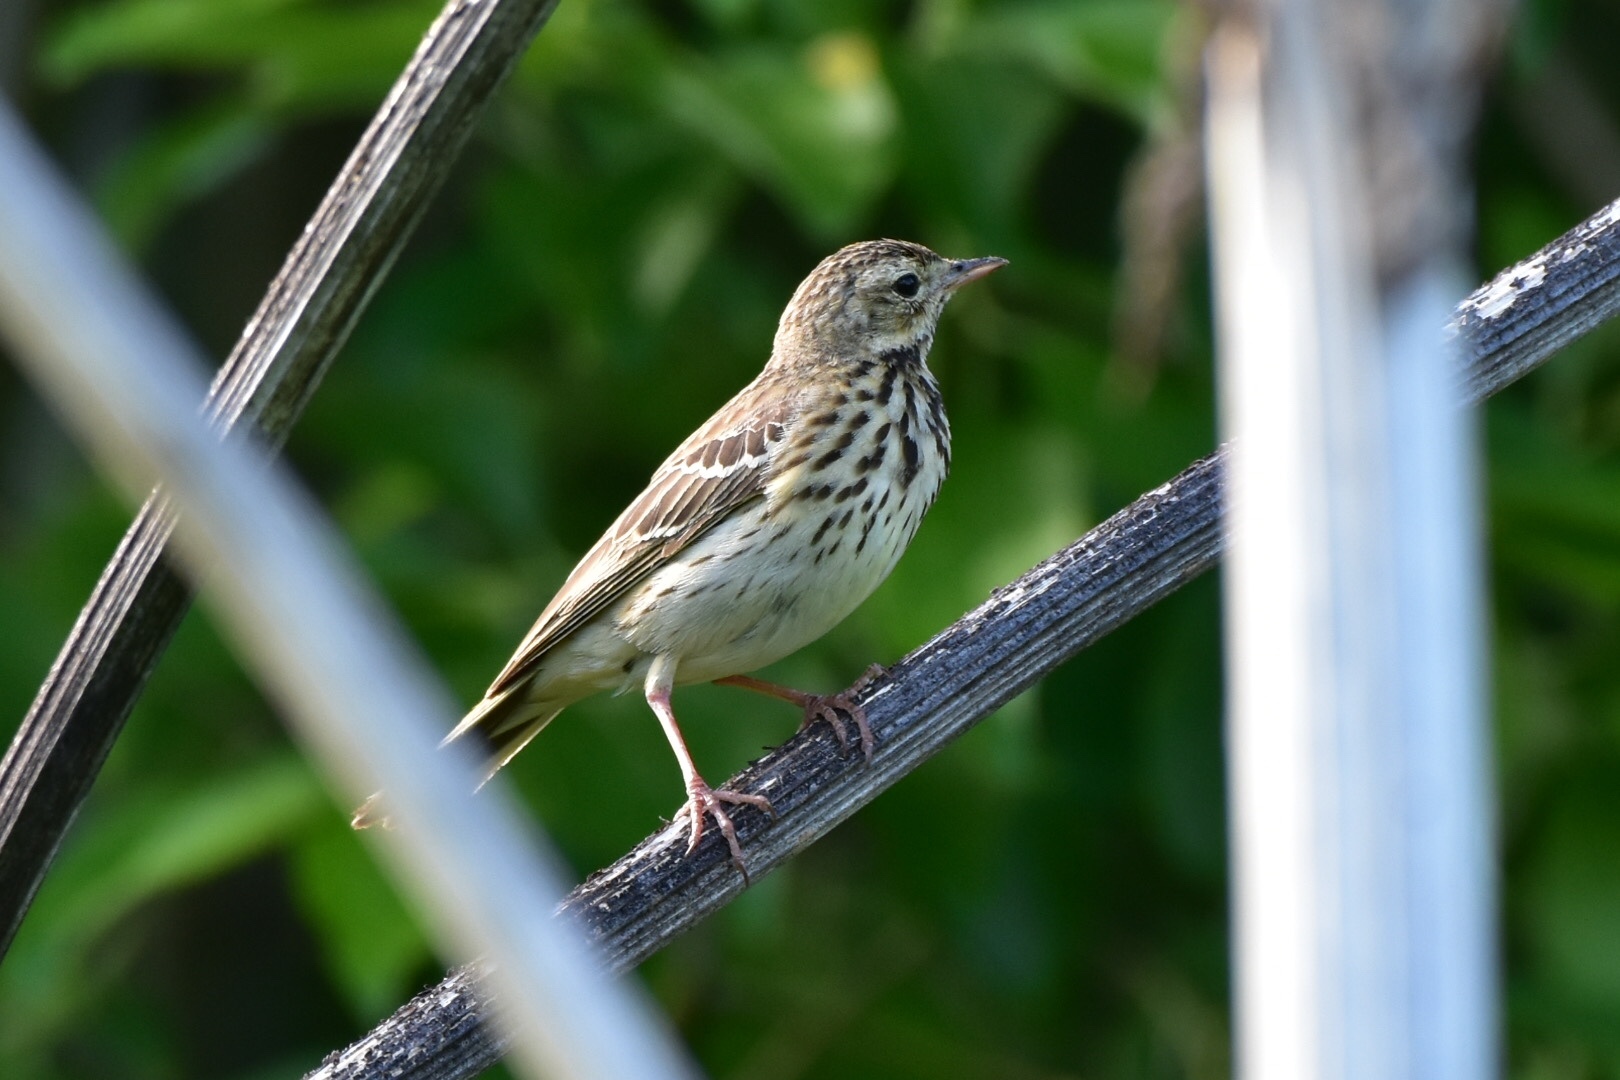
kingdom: Animalia
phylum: Chordata
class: Aves
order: Passeriformes
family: Motacillidae
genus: Anthus
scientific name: Anthus trivialis
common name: Tree pipit
